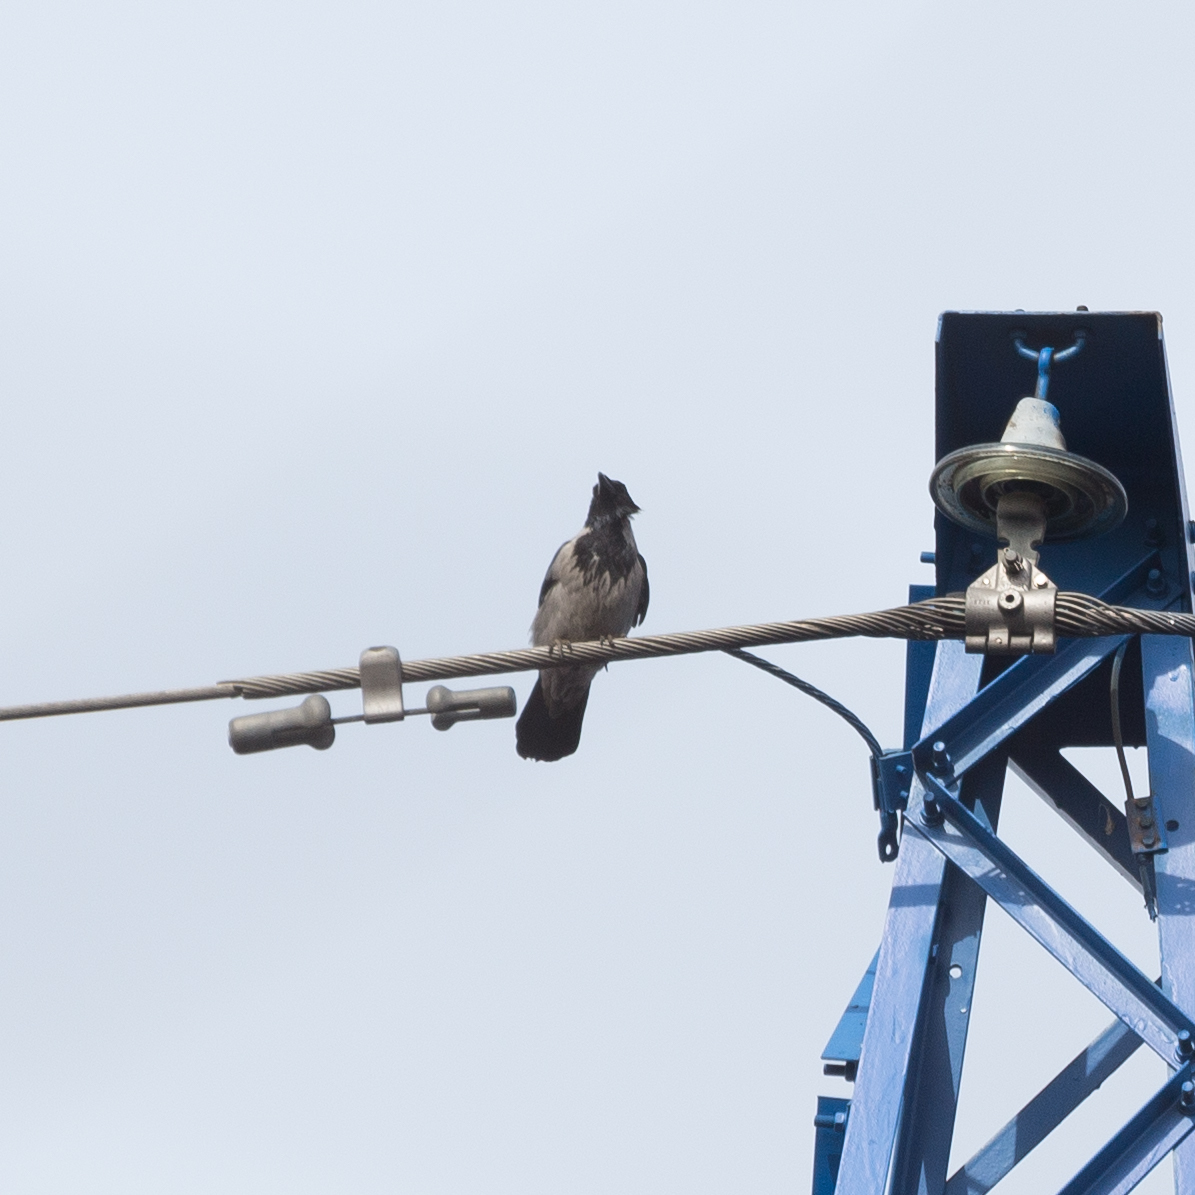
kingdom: Animalia
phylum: Chordata
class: Aves
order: Passeriformes
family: Corvidae
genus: Corvus
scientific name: Corvus cornix
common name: Hooded crow
